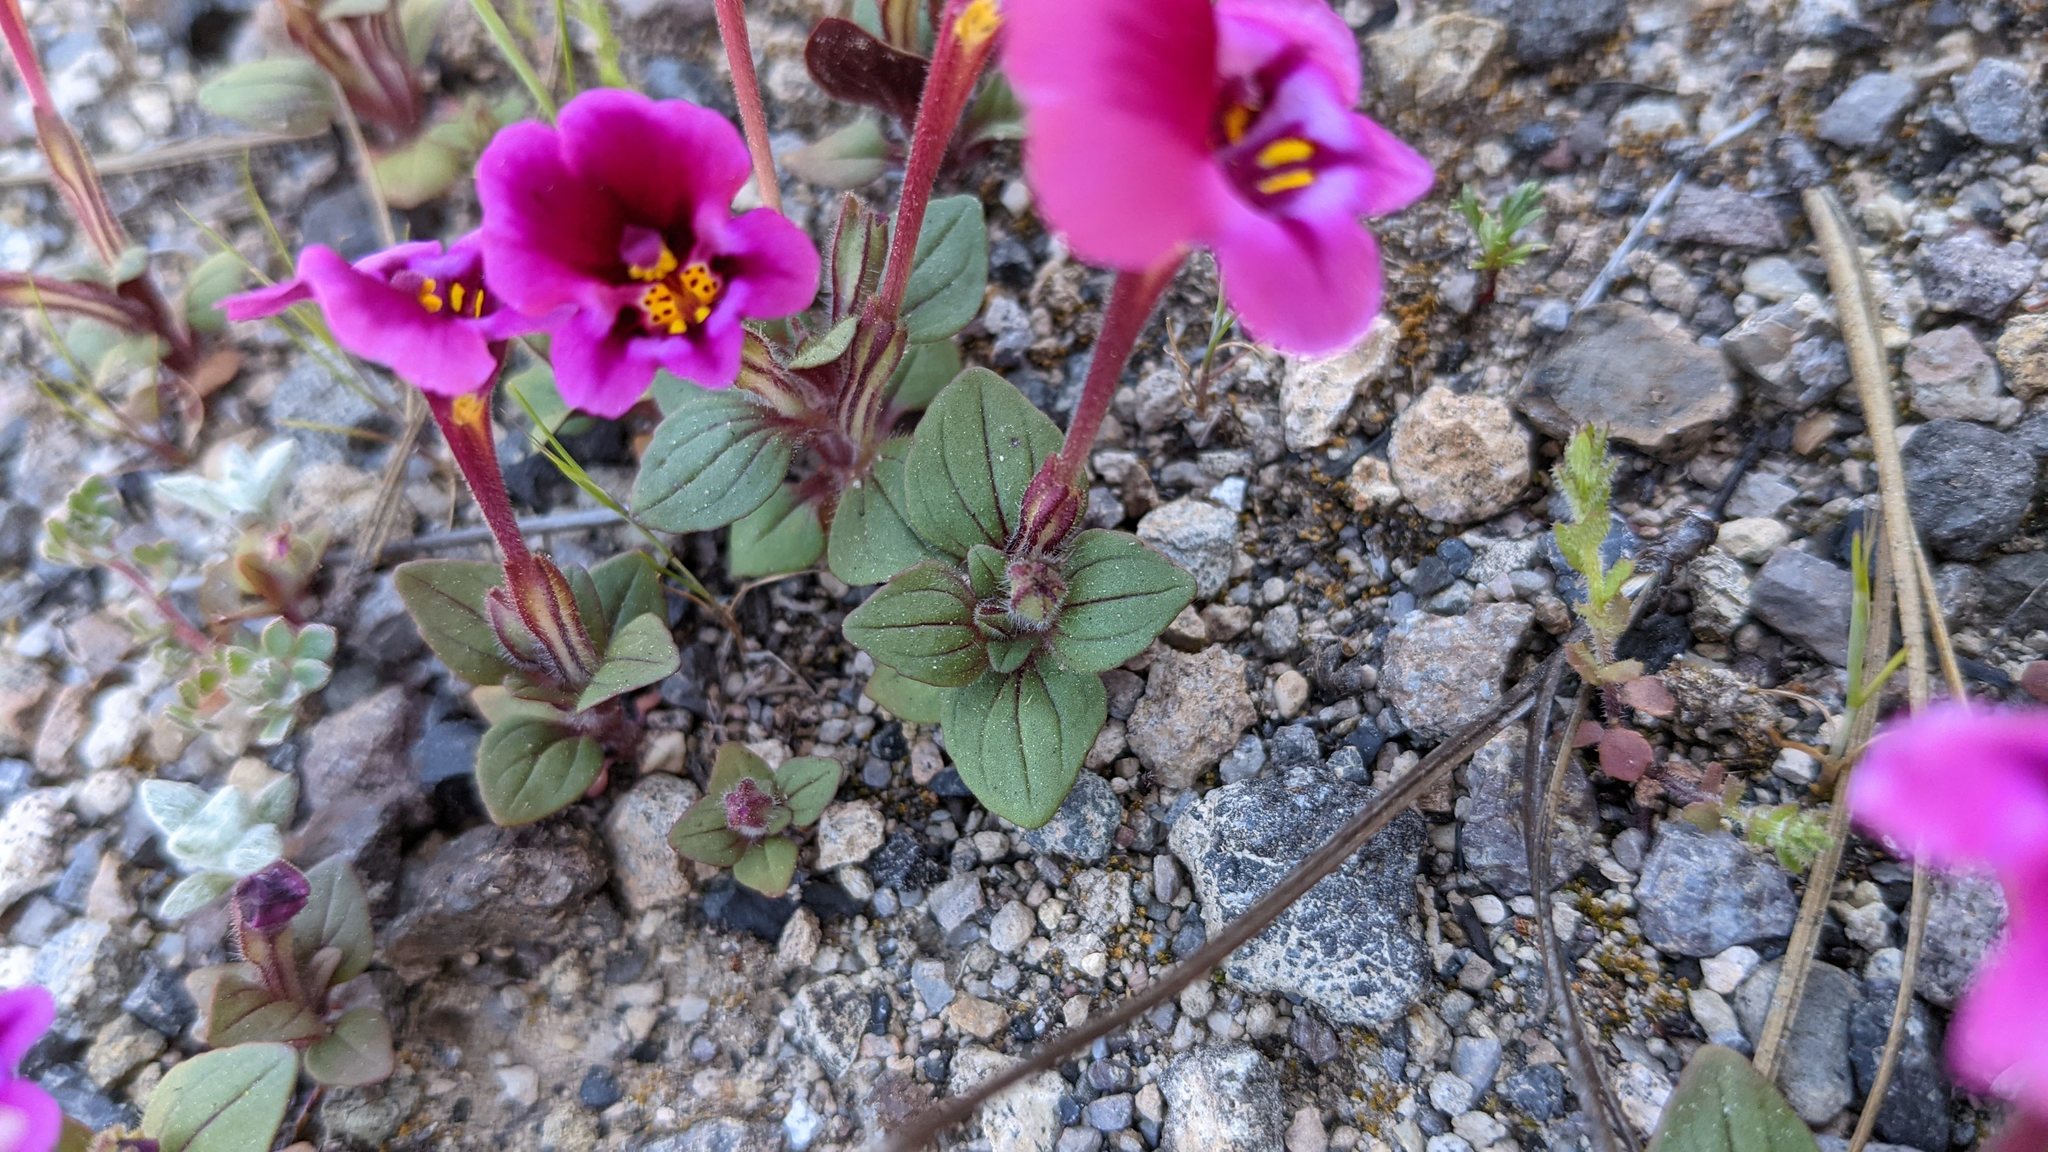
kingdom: Plantae
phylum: Tracheophyta
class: Magnoliopsida
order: Lamiales
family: Phrymaceae
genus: Diplacus
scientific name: Diplacus kelloggii
